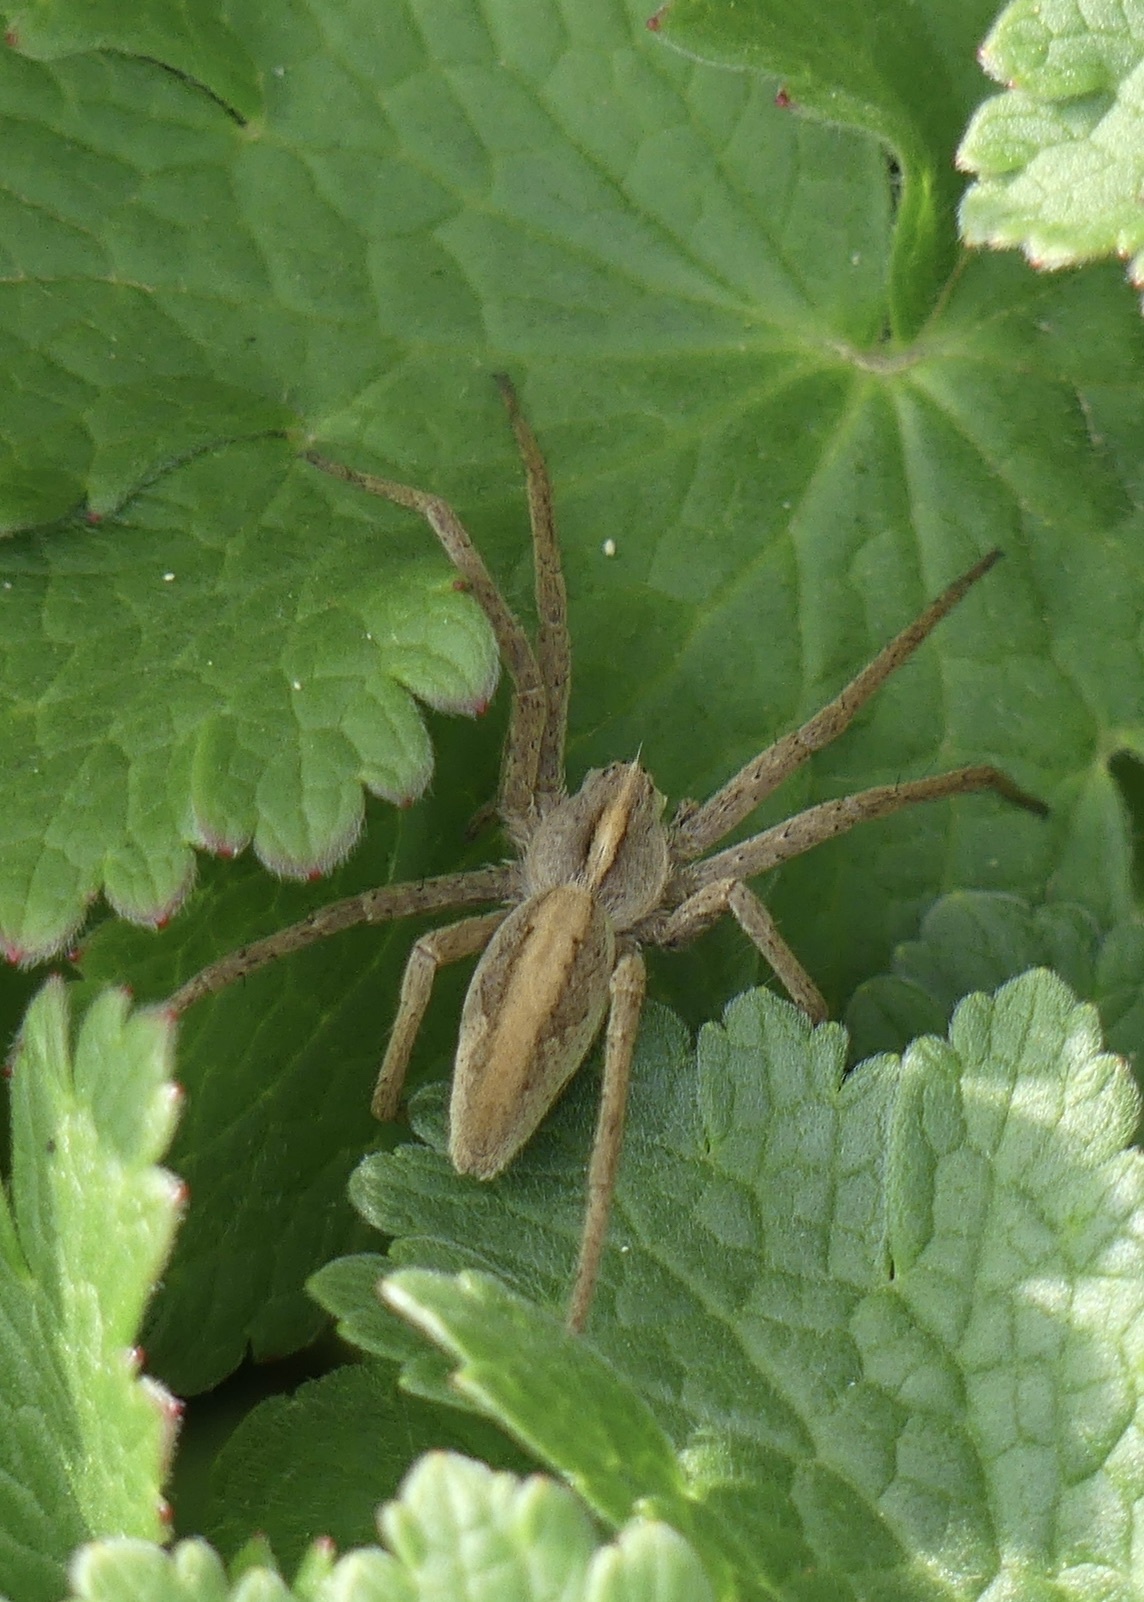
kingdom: Animalia
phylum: Arthropoda
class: Arachnida
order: Araneae
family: Pisauridae
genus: Pisaura
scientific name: Pisaura mirabilis
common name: Tent spider
